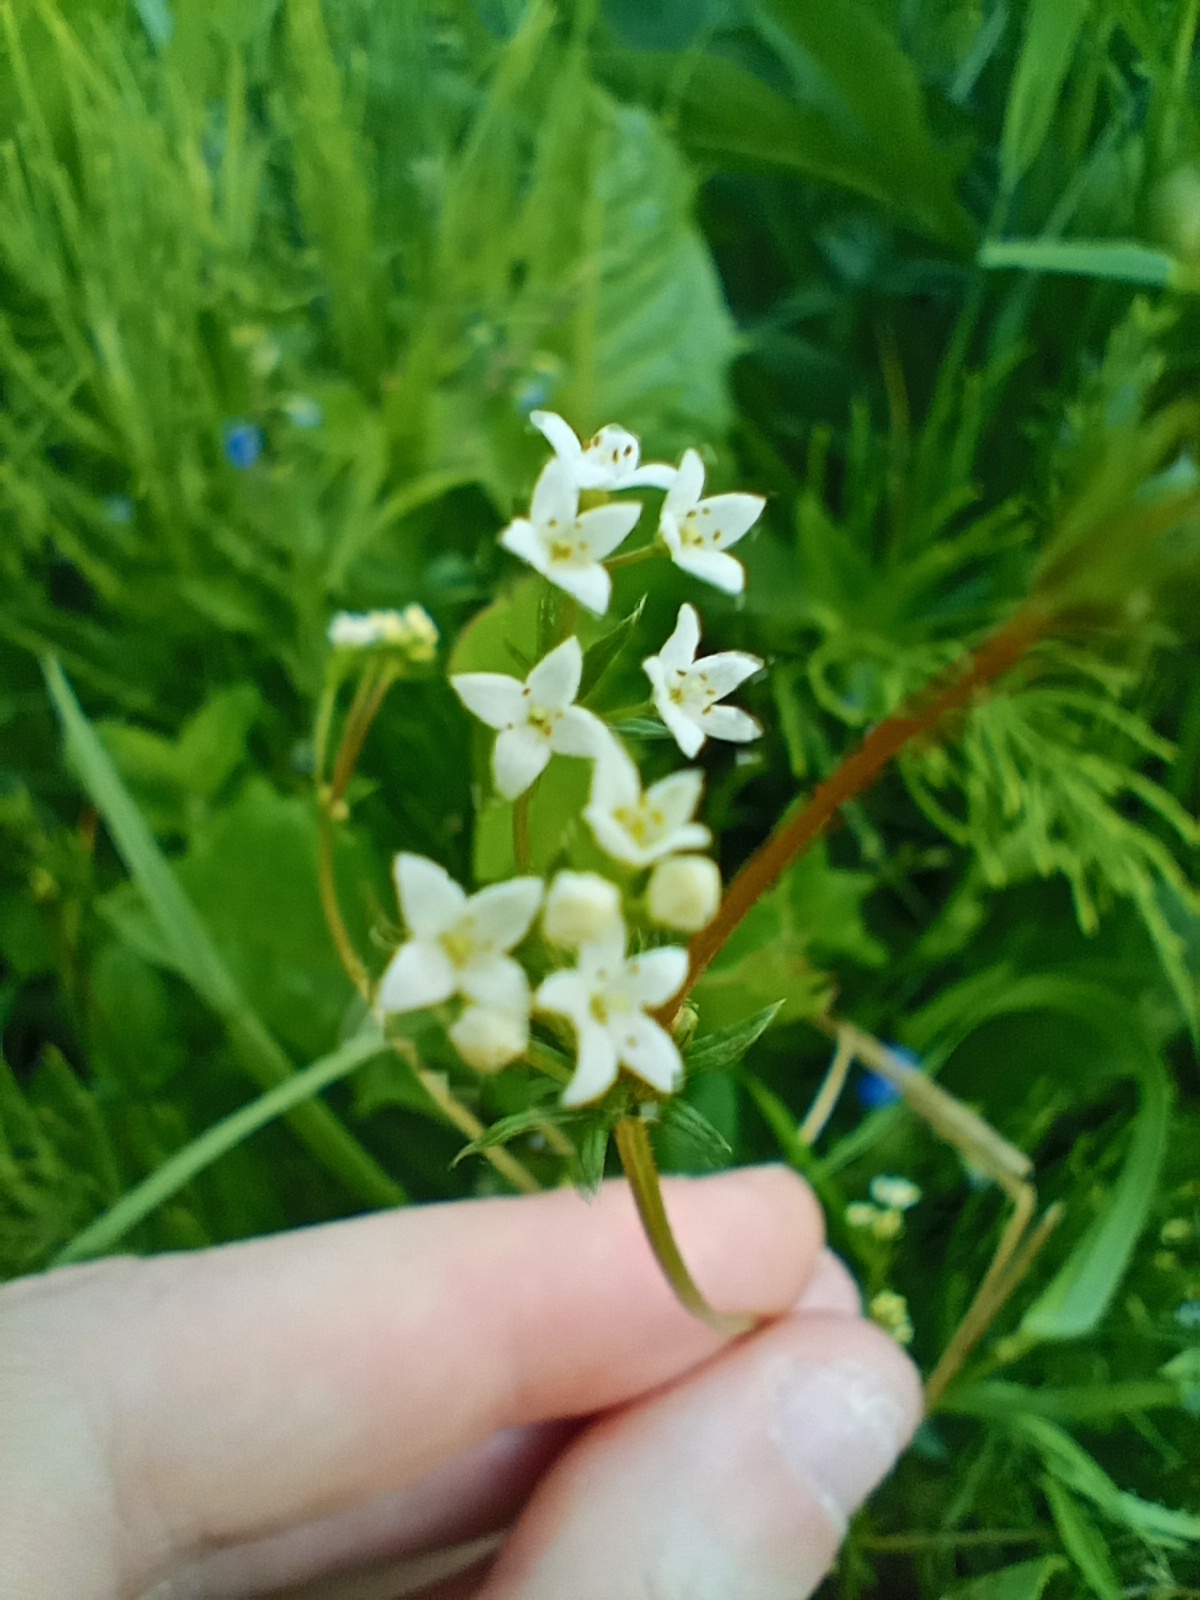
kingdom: Plantae
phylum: Tracheophyta
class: Magnoliopsida
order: Gentianales
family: Rubiaceae
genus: Galium
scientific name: Galium uliginosum
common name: Fen bedstraw
